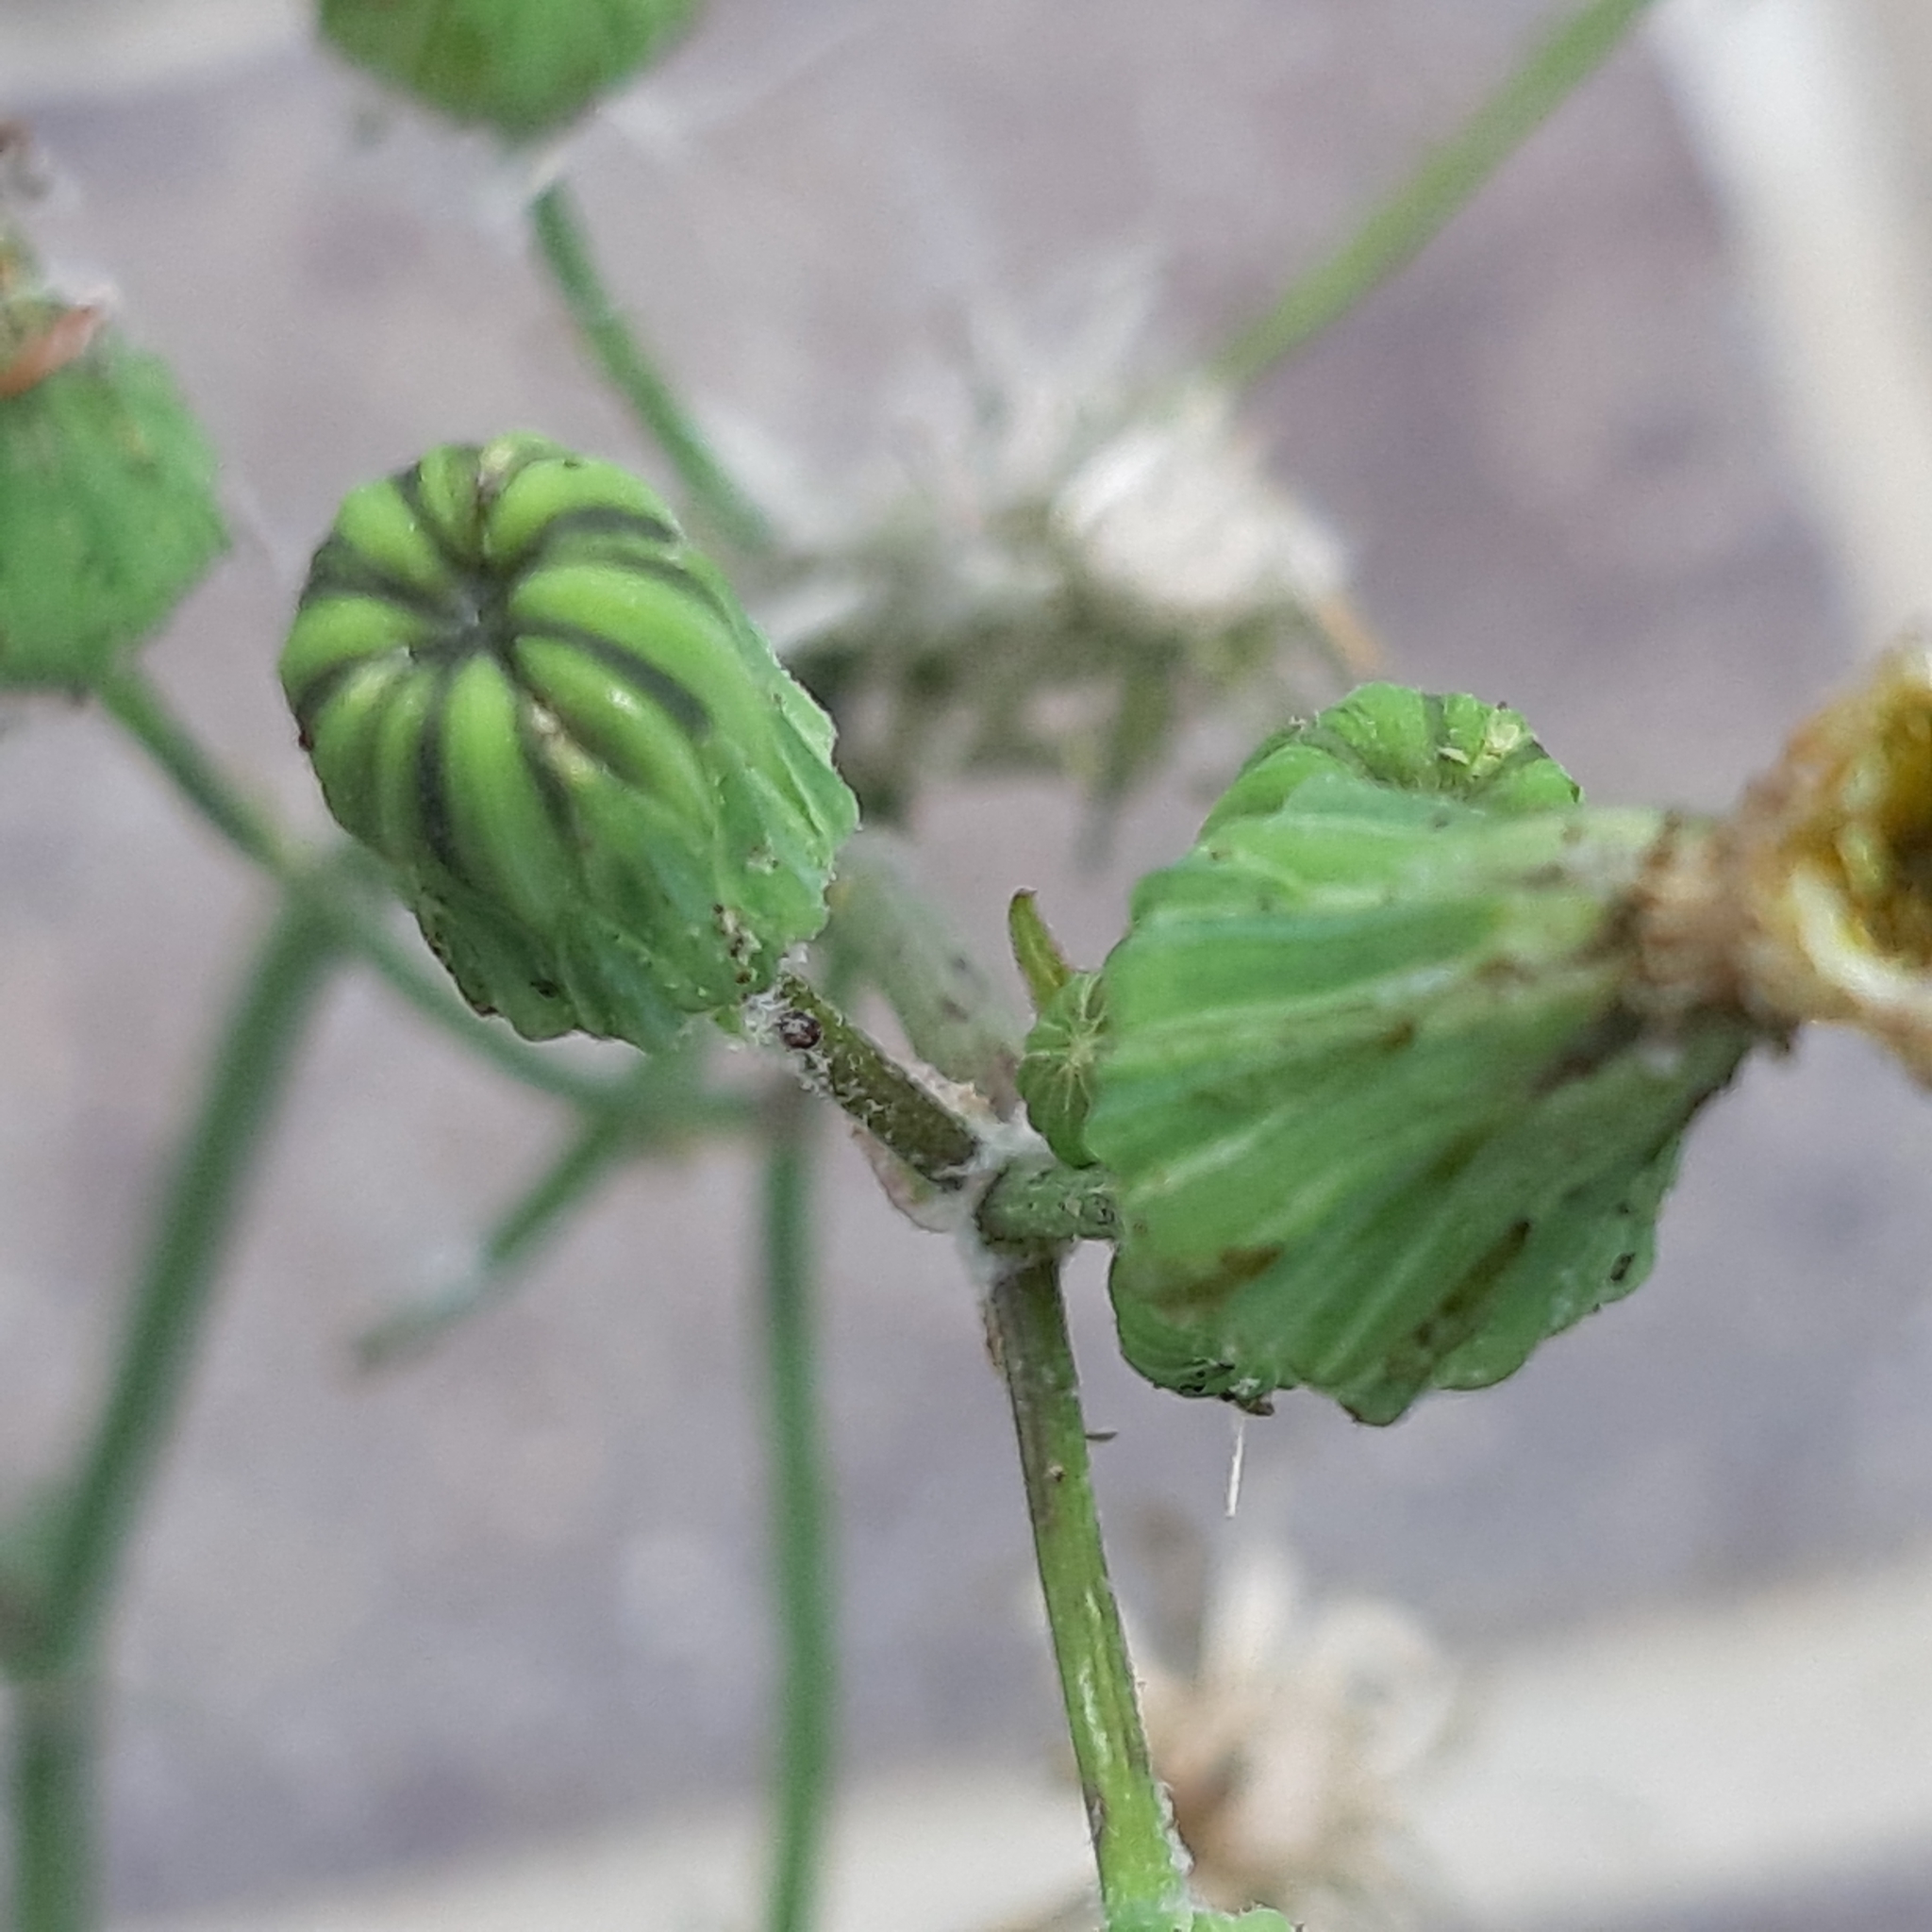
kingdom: Plantae
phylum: Tracheophyta
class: Magnoliopsida
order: Asterales
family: Asteraceae
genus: Sonchus
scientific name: Sonchus oleraceus
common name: Common sowthistle
